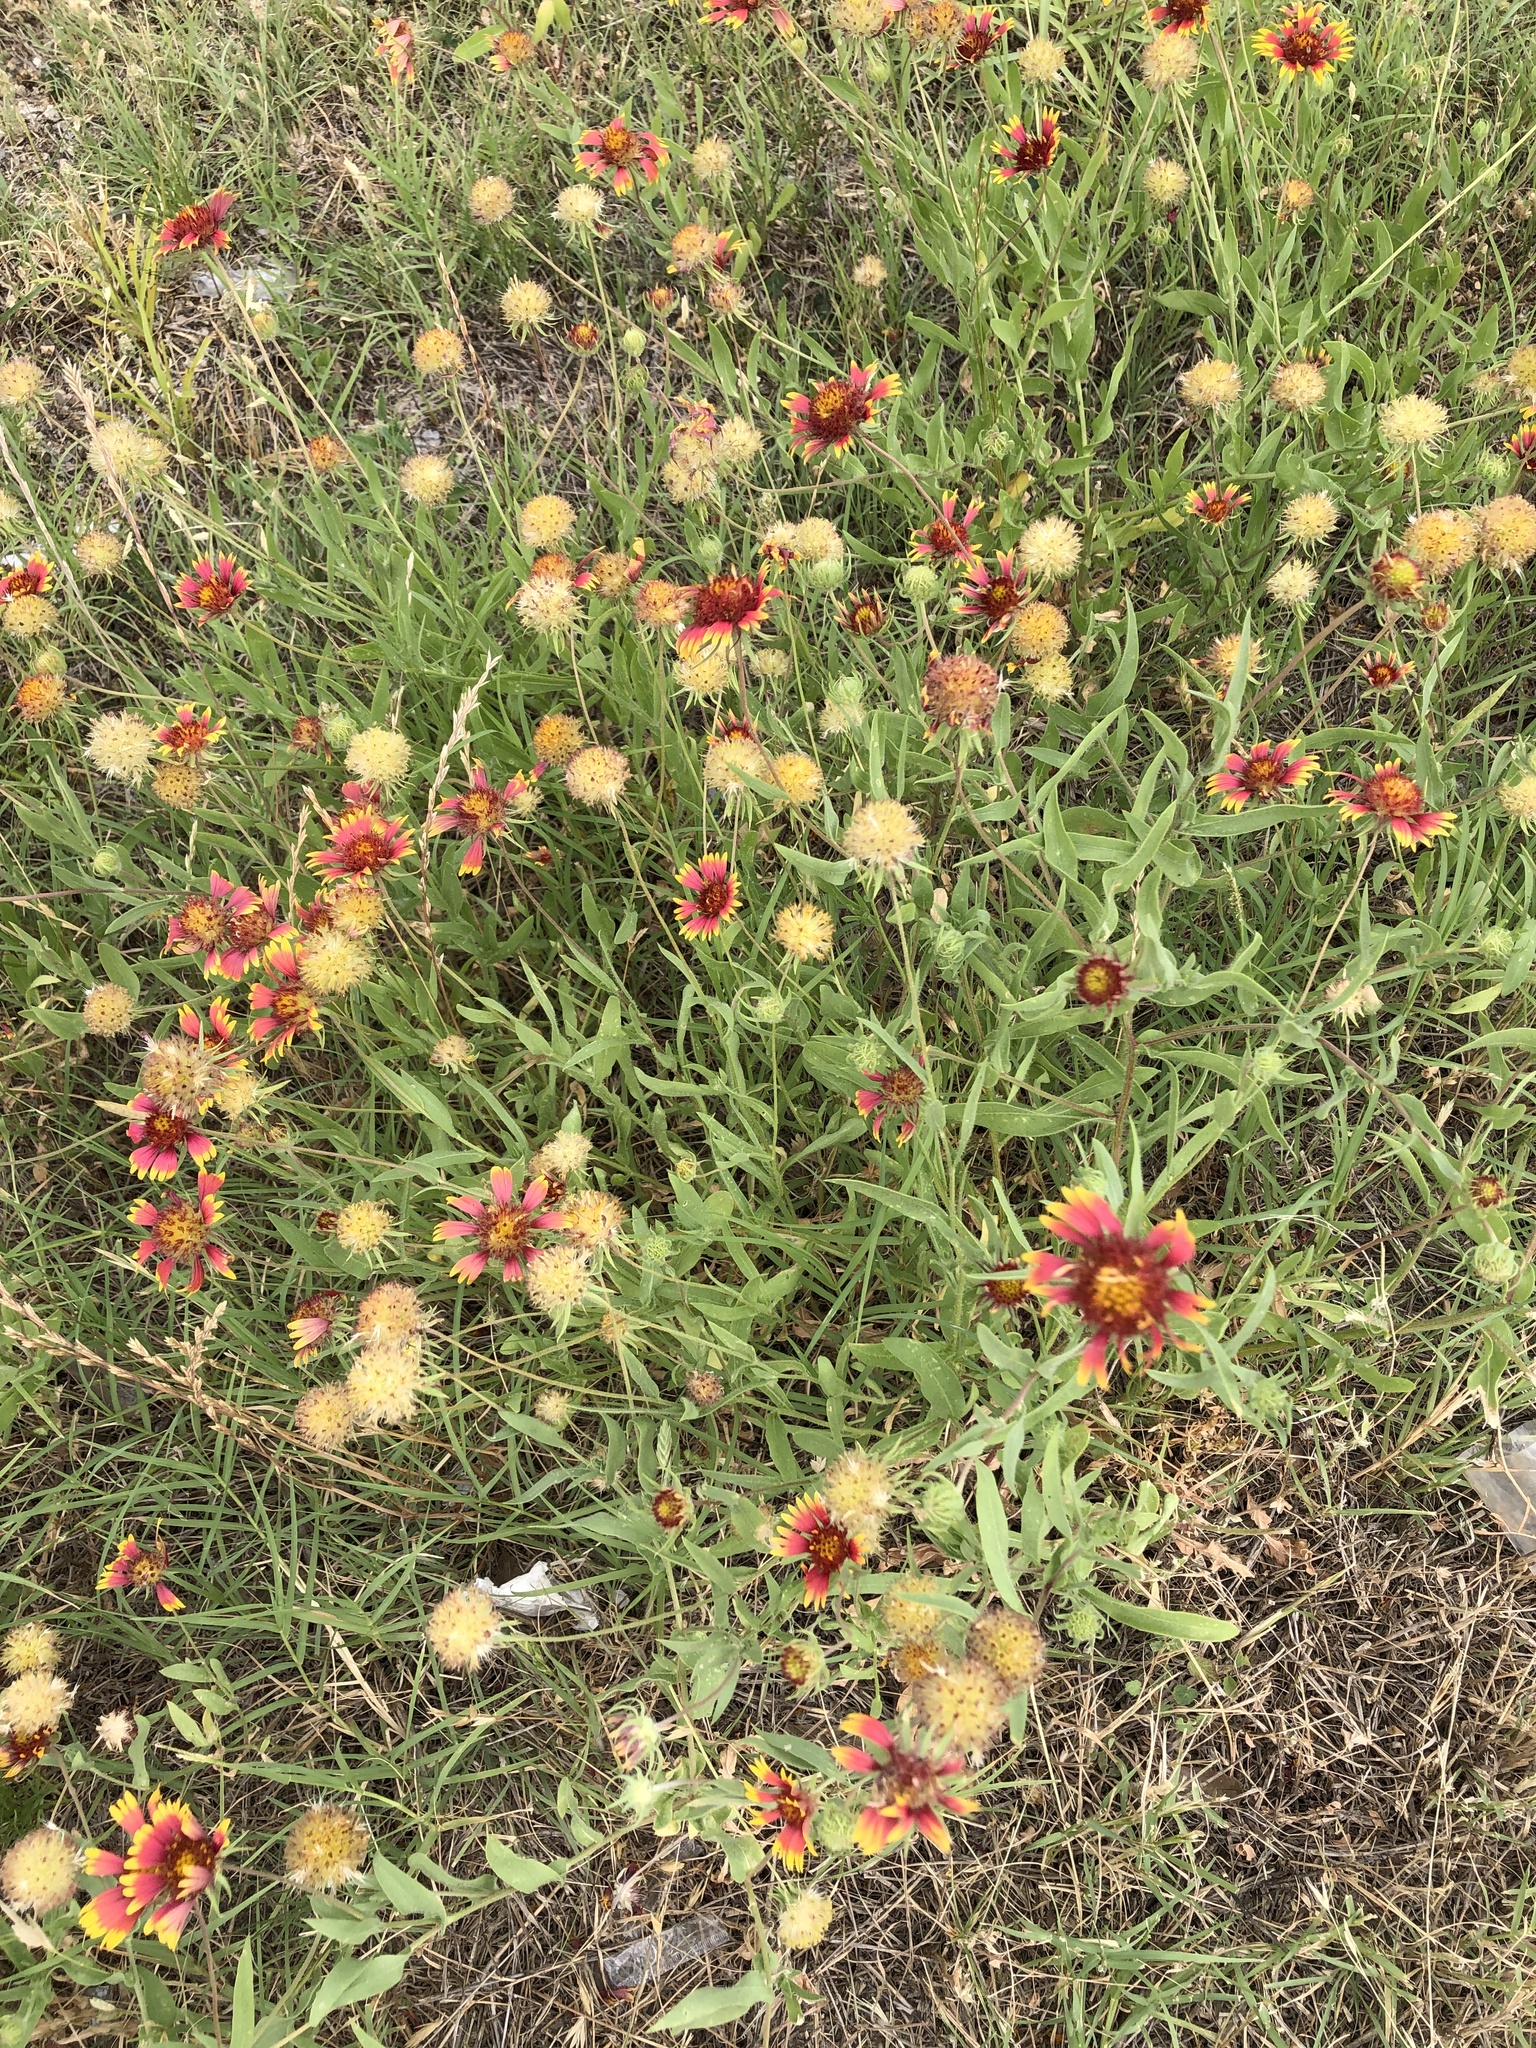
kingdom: Plantae
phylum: Tracheophyta
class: Magnoliopsida
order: Asterales
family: Asteraceae
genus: Gaillardia
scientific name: Gaillardia pulchella
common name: Firewheel
